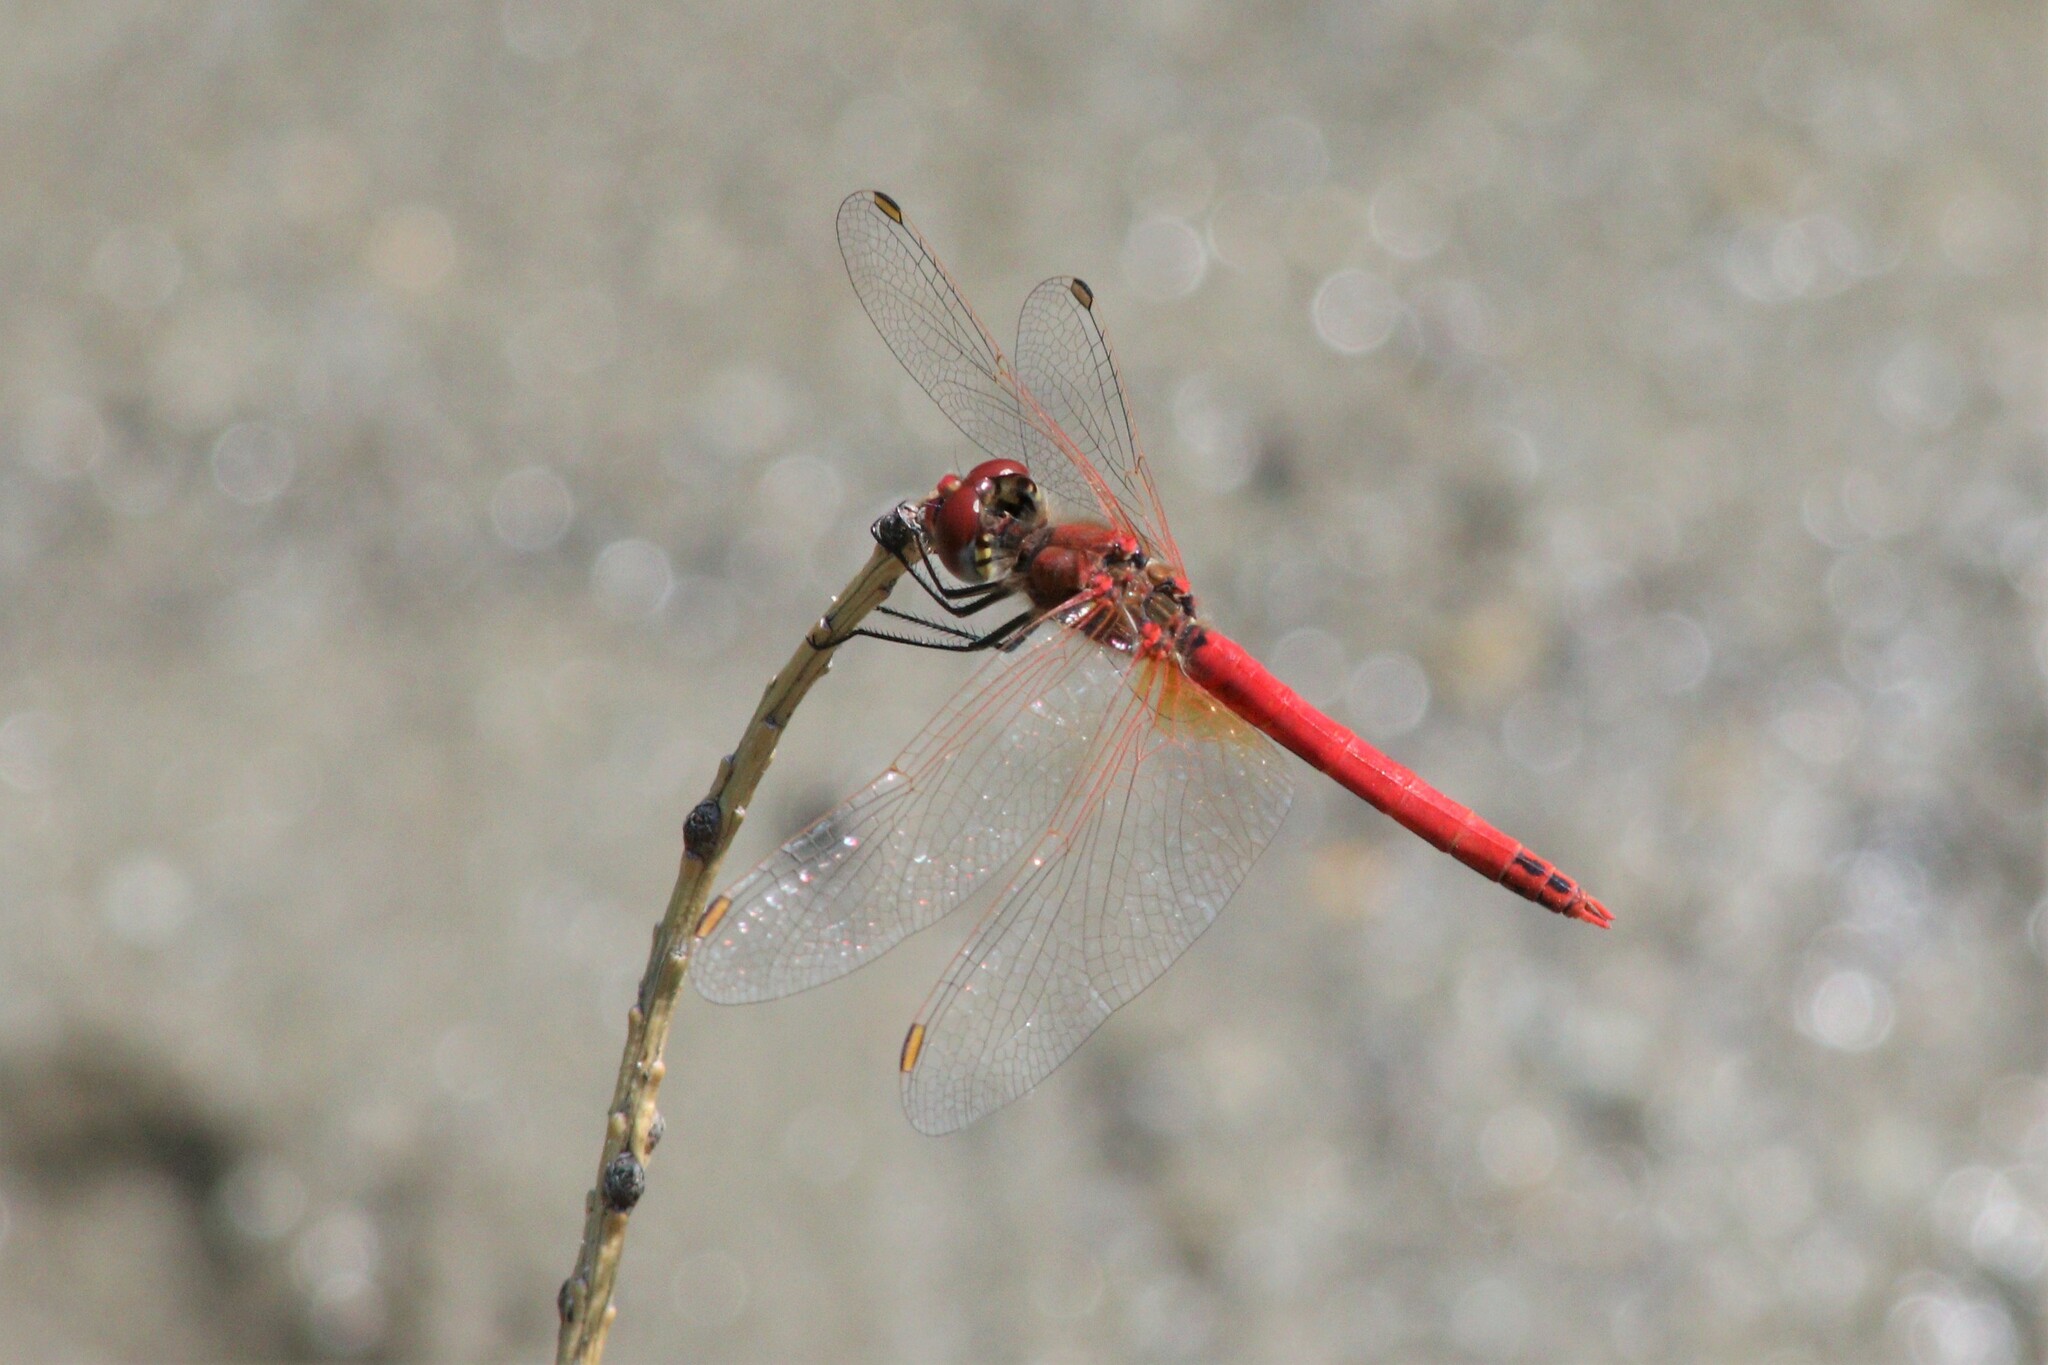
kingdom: Animalia
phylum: Arthropoda
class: Insecta
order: Odonata
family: Libellulidae
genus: Sympetrum
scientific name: Sympetrum fonscolombii
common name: Red-veined darter
